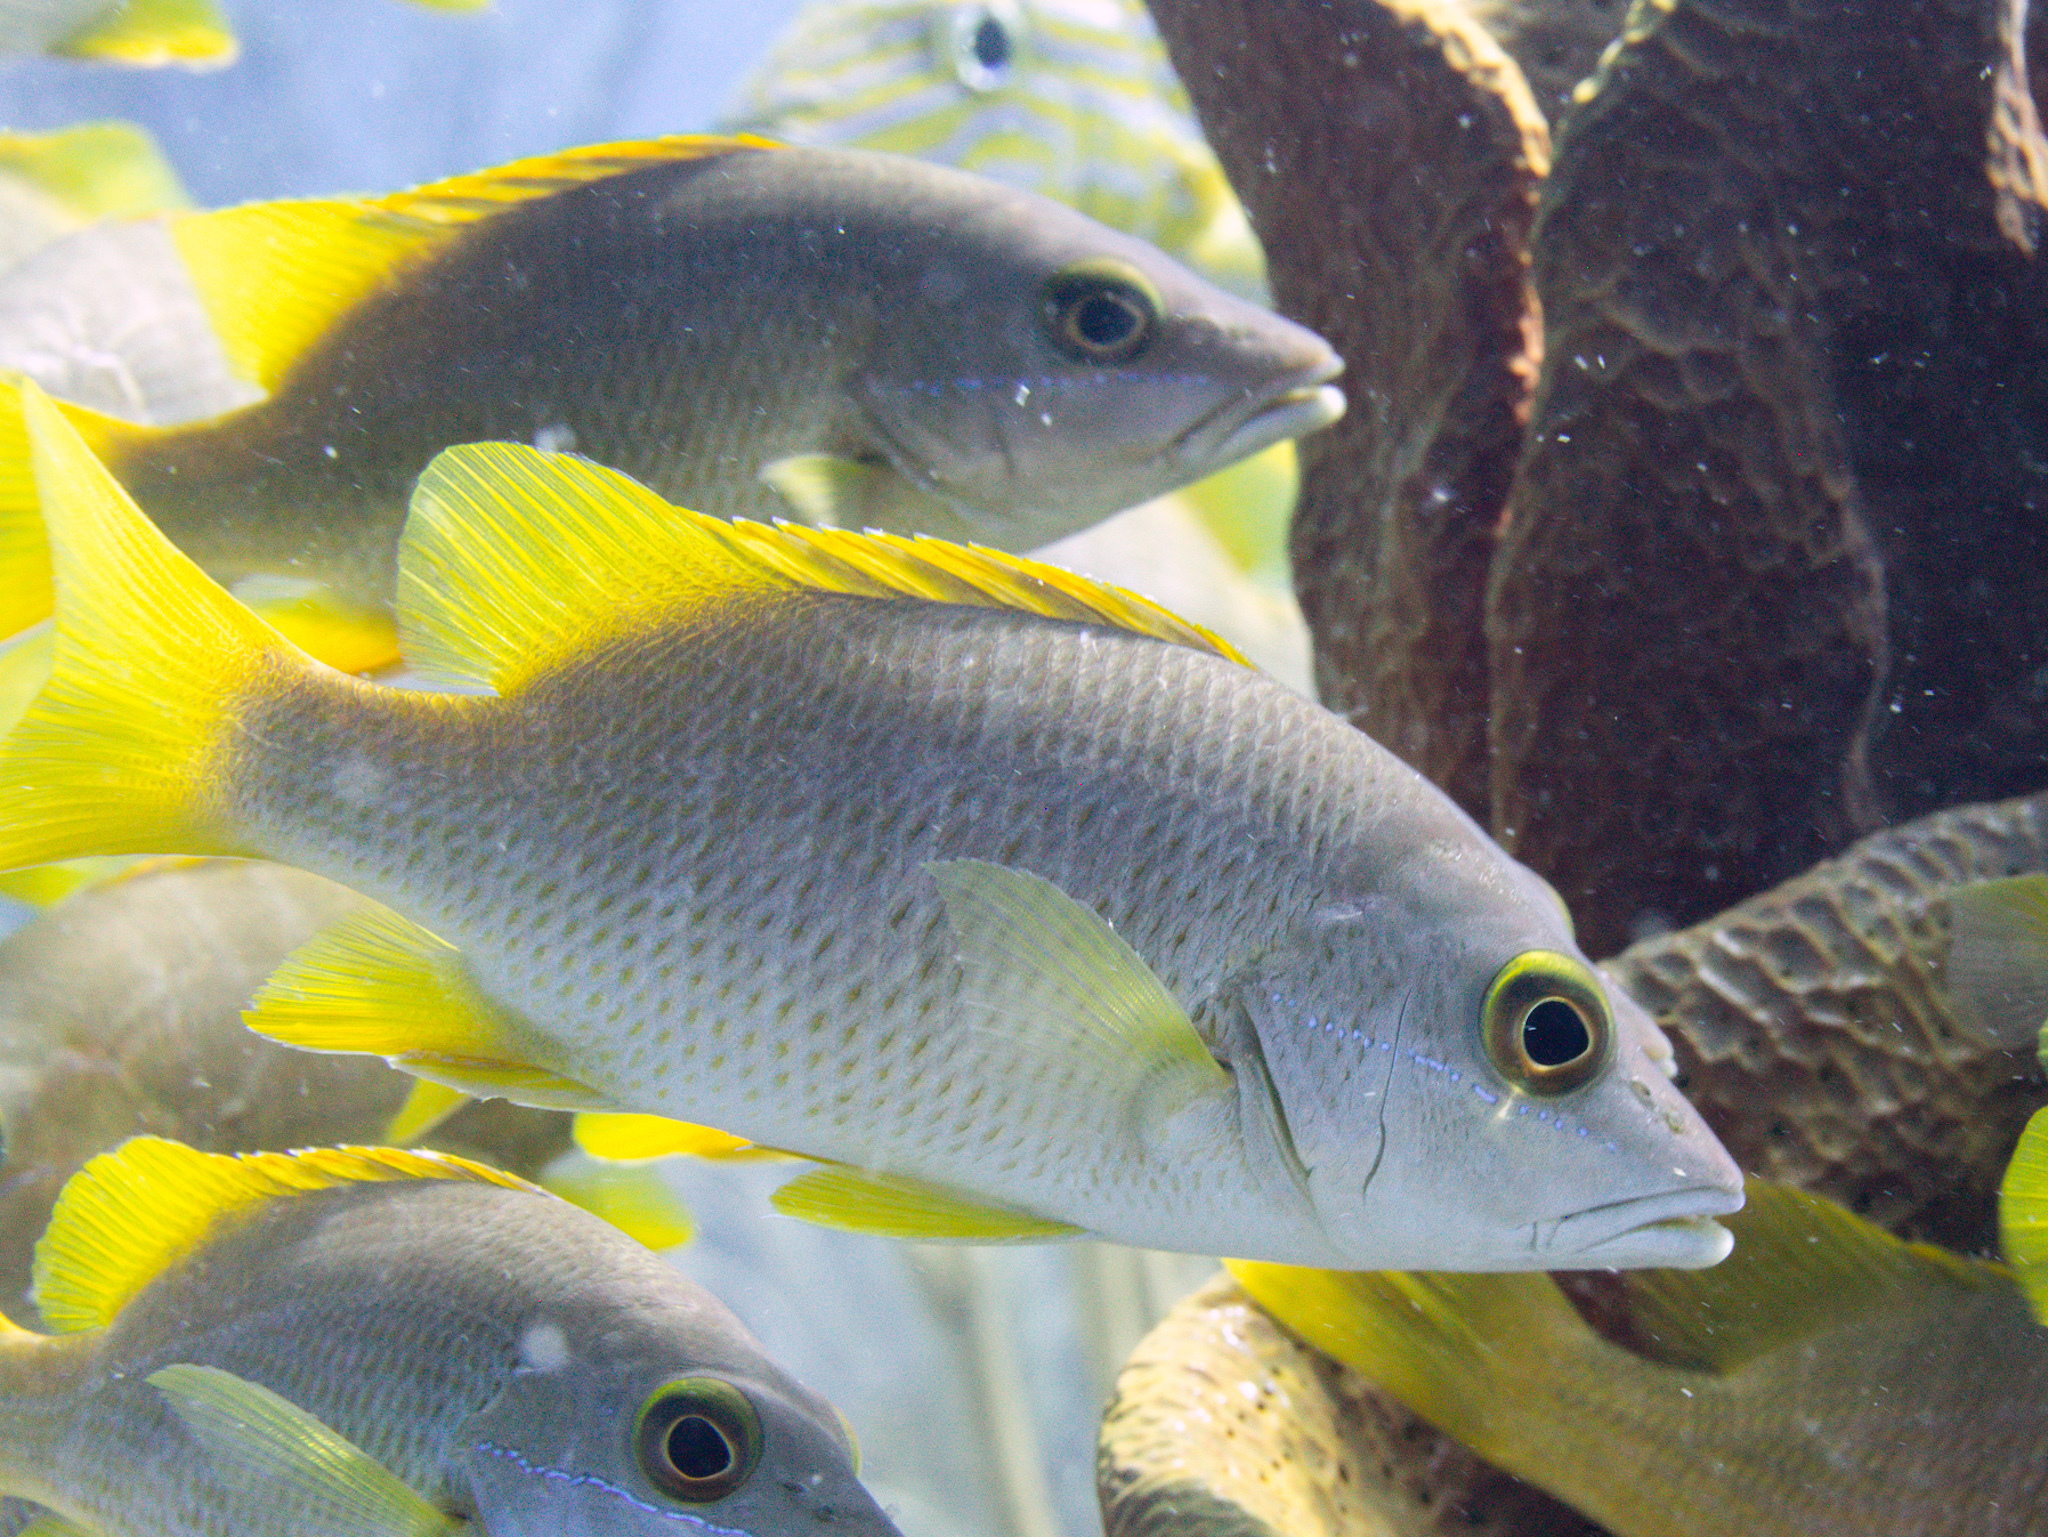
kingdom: Animalia
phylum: Chordata
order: Perciformes
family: Lutjanidae
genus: Lutjanus
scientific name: Lutjanus apodus
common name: Schoolmaster
